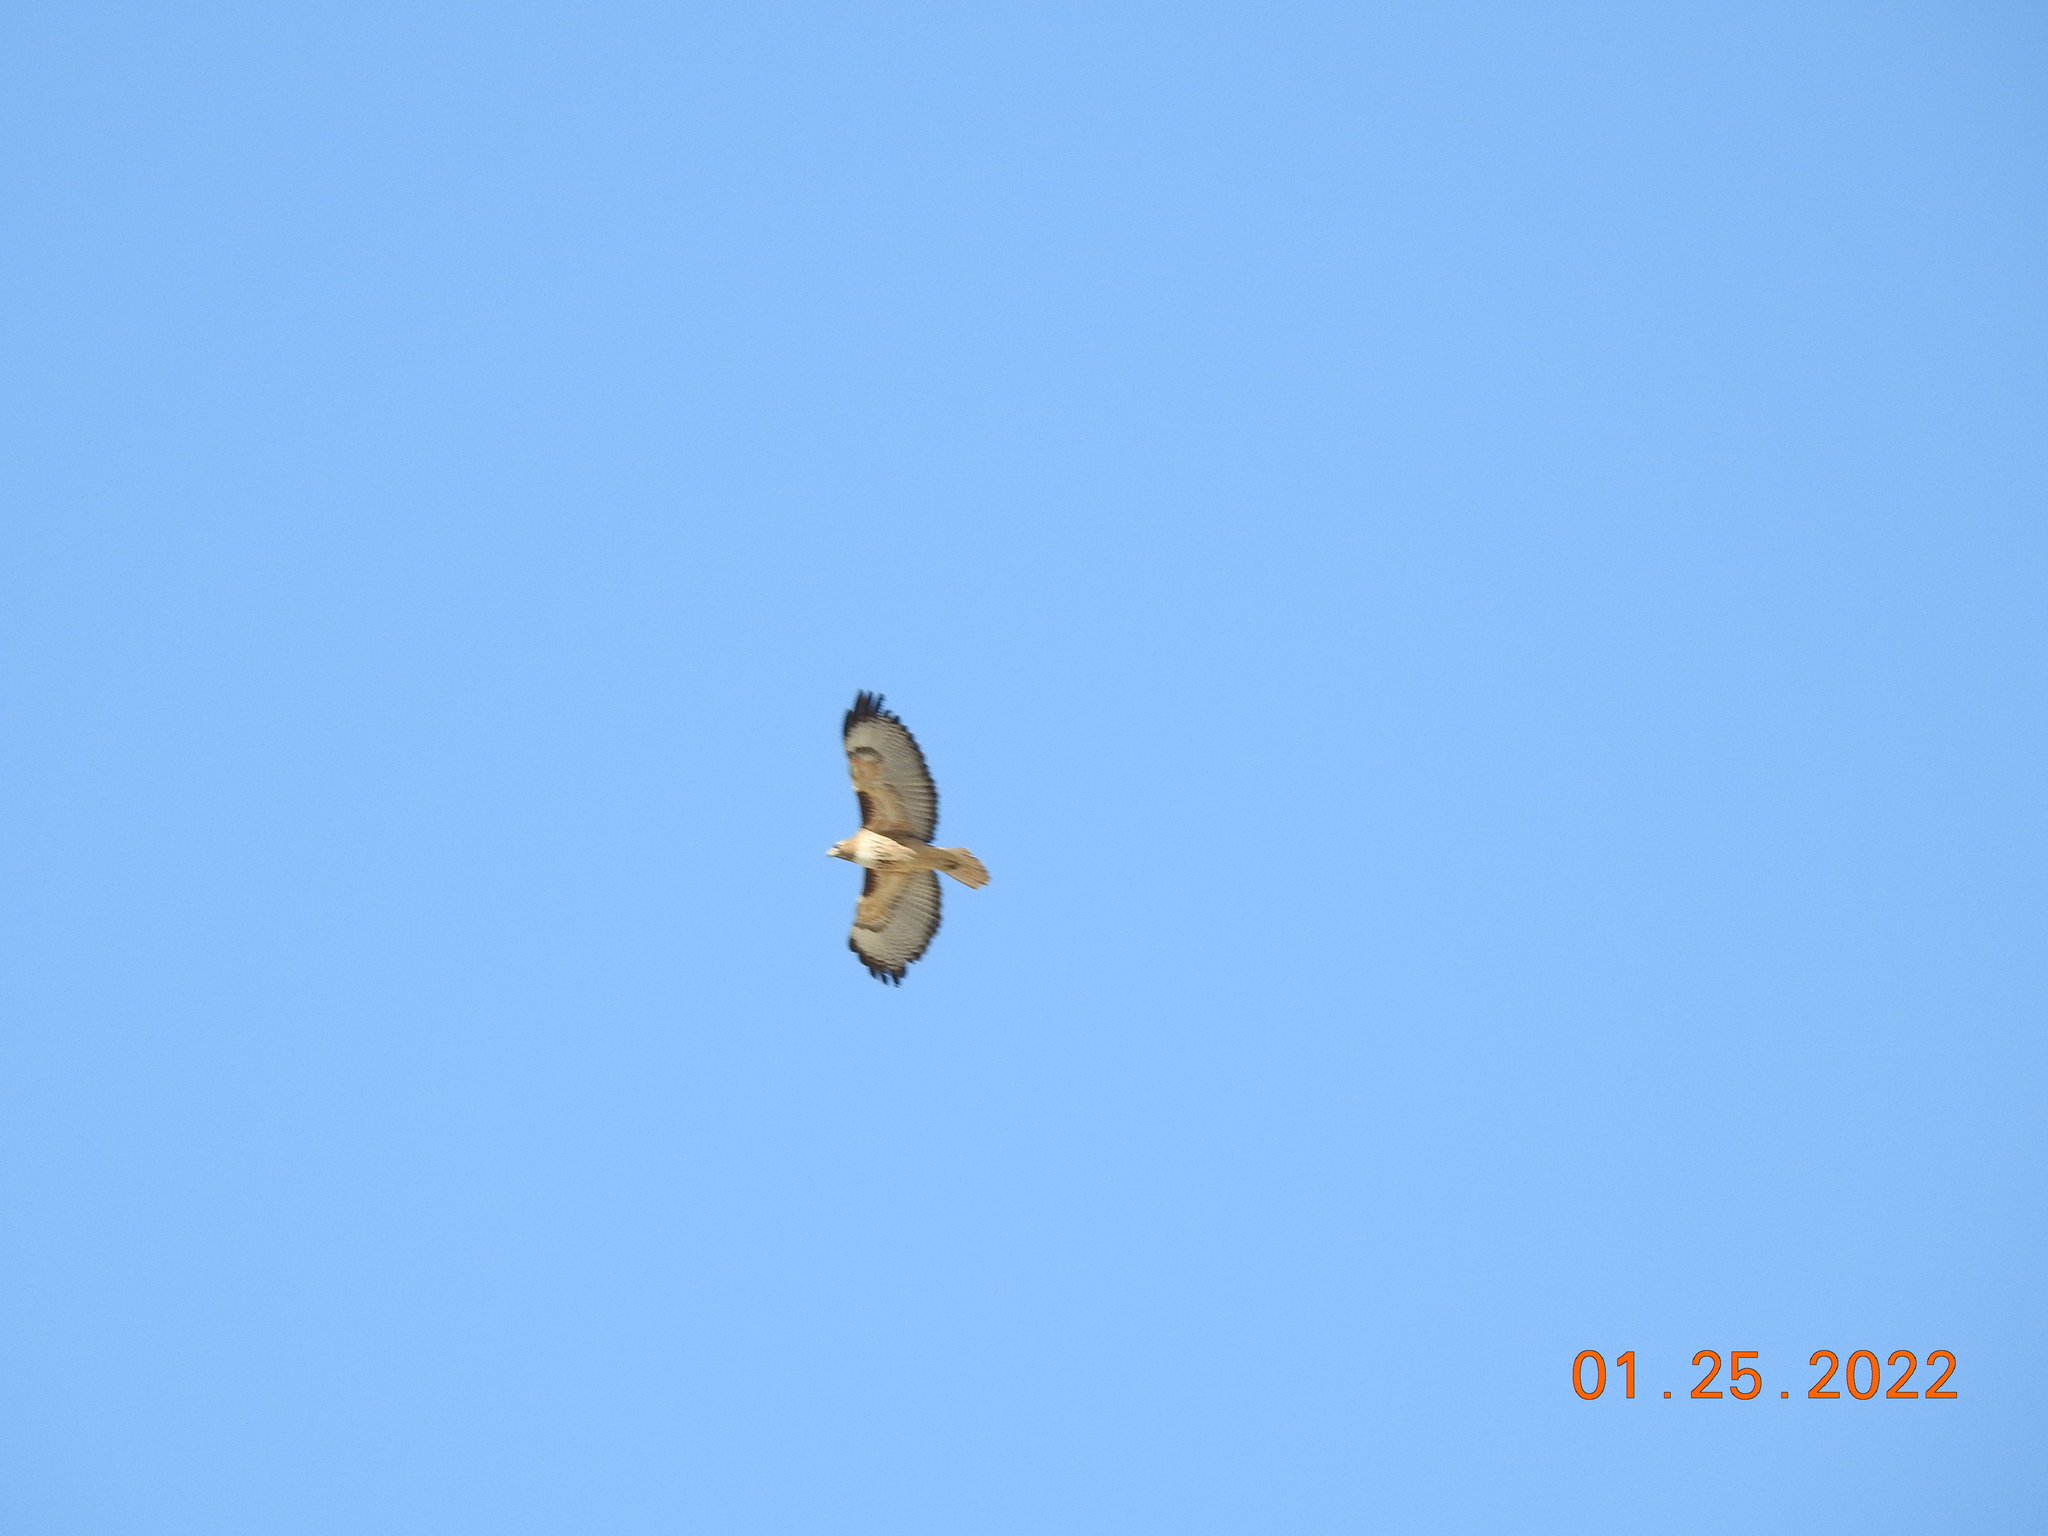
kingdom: Animalia
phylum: Chordata
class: Aves
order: Accipitriformes
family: Accipitridae
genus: Buteo
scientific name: Buteo jamaicensis
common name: Red-tailed hawk
